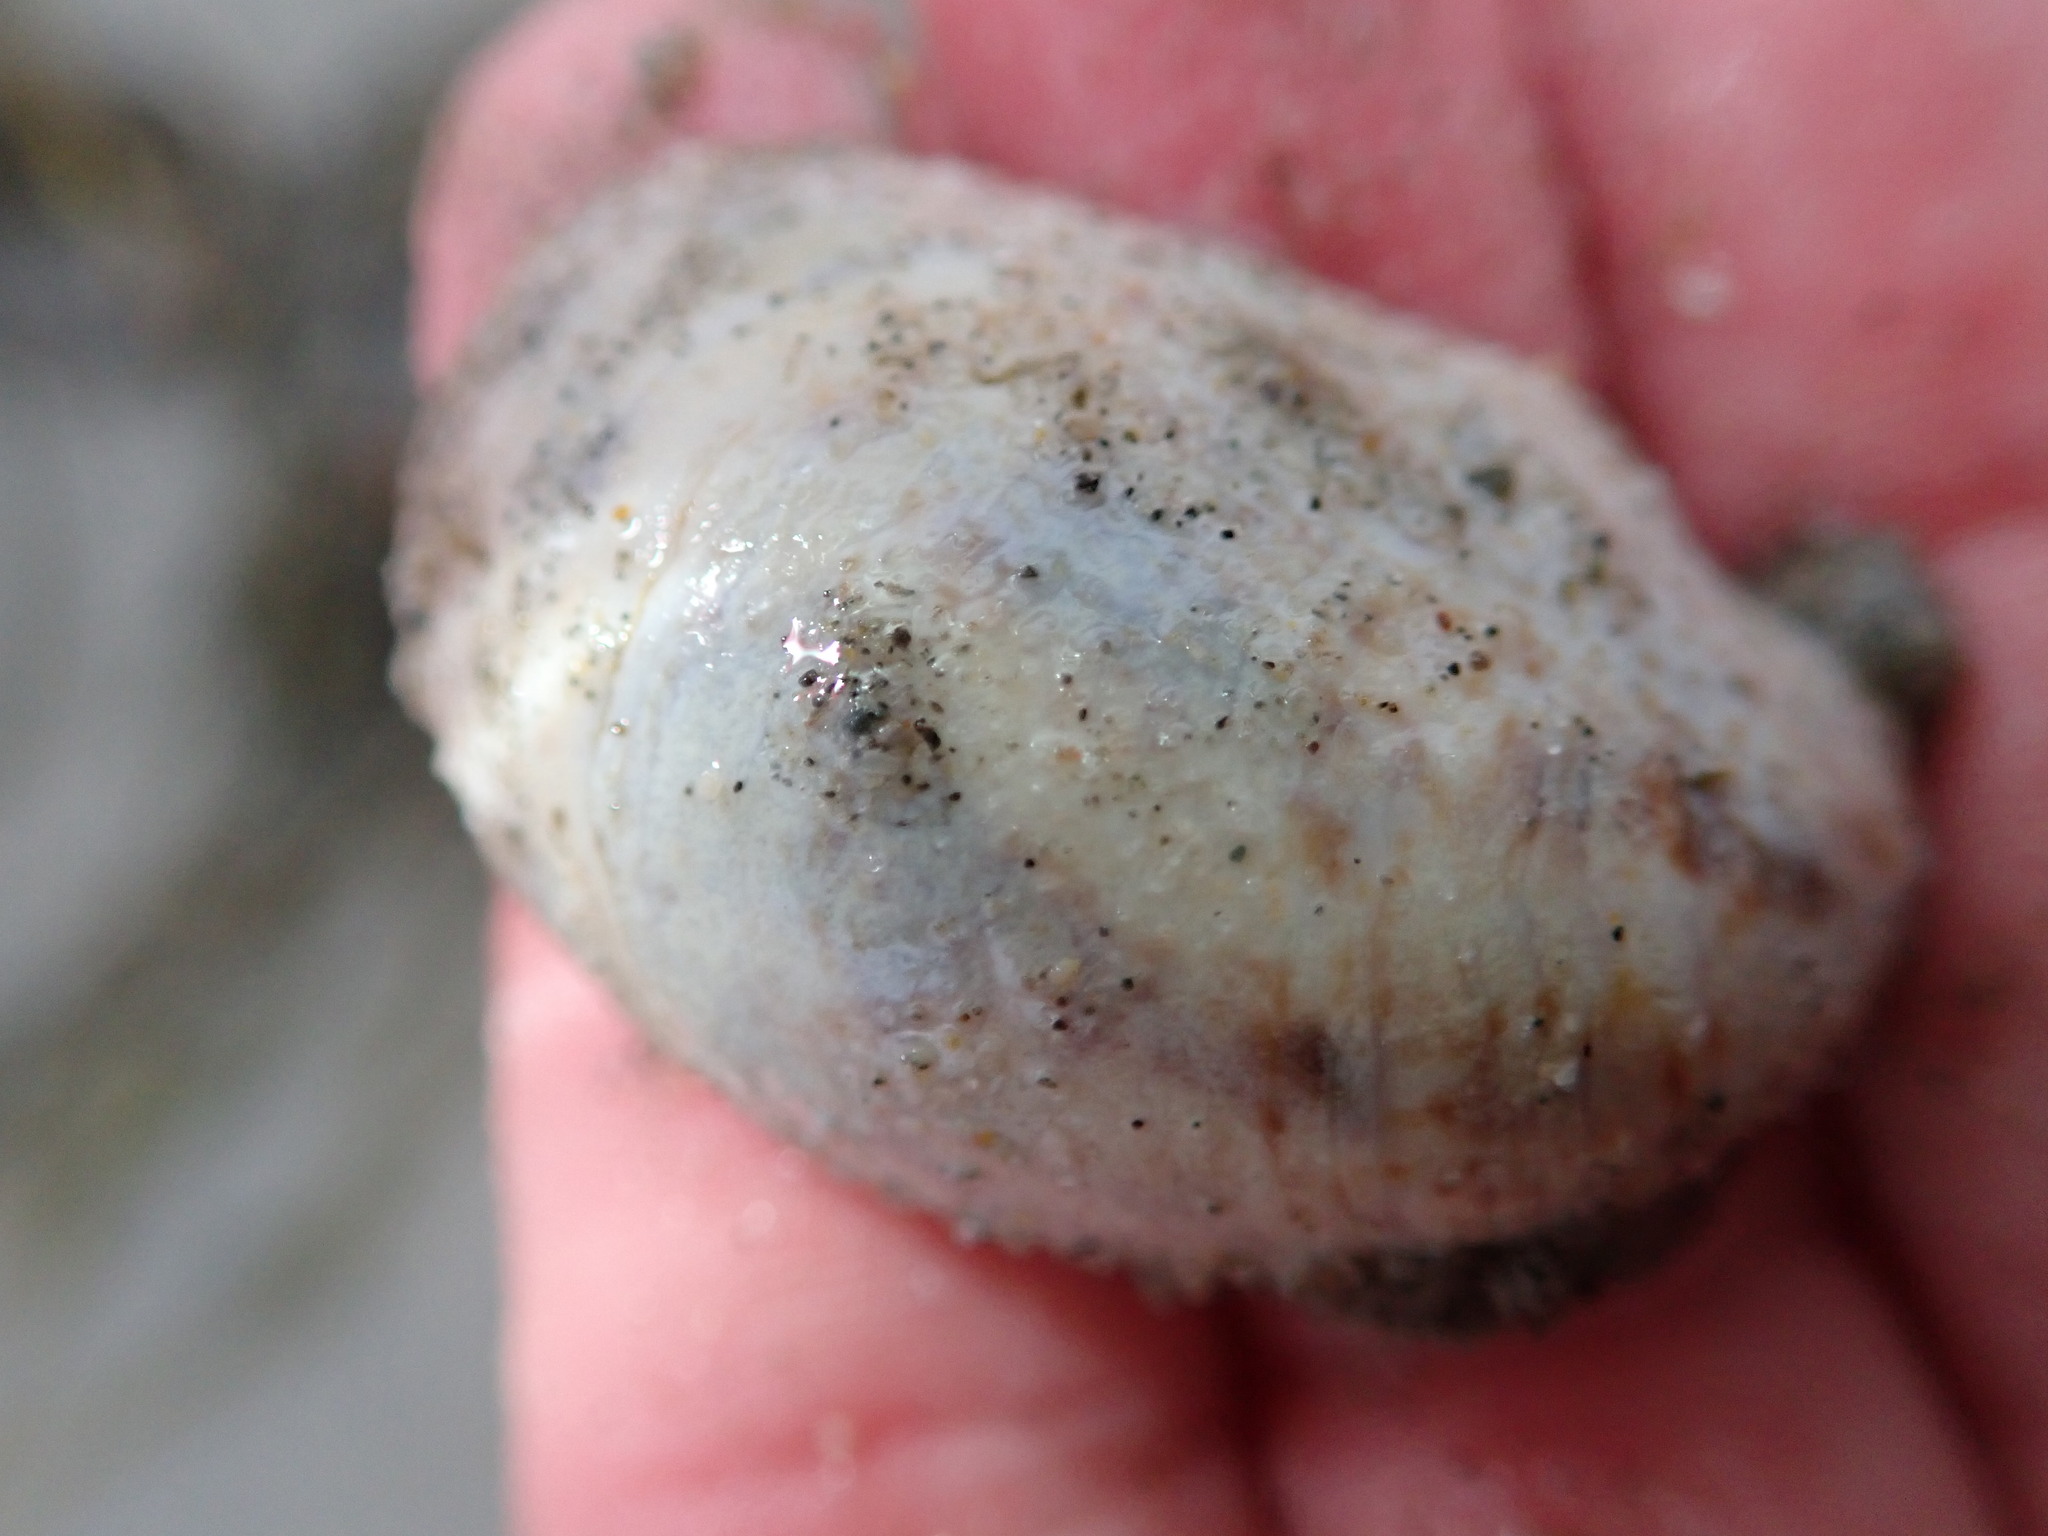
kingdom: Animalia
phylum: Mollusca
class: Gastropoda
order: Littorinimorpha
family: Calyptraeidae
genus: Crepidula
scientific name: Crepidula fornicata
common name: Slipper limpet
